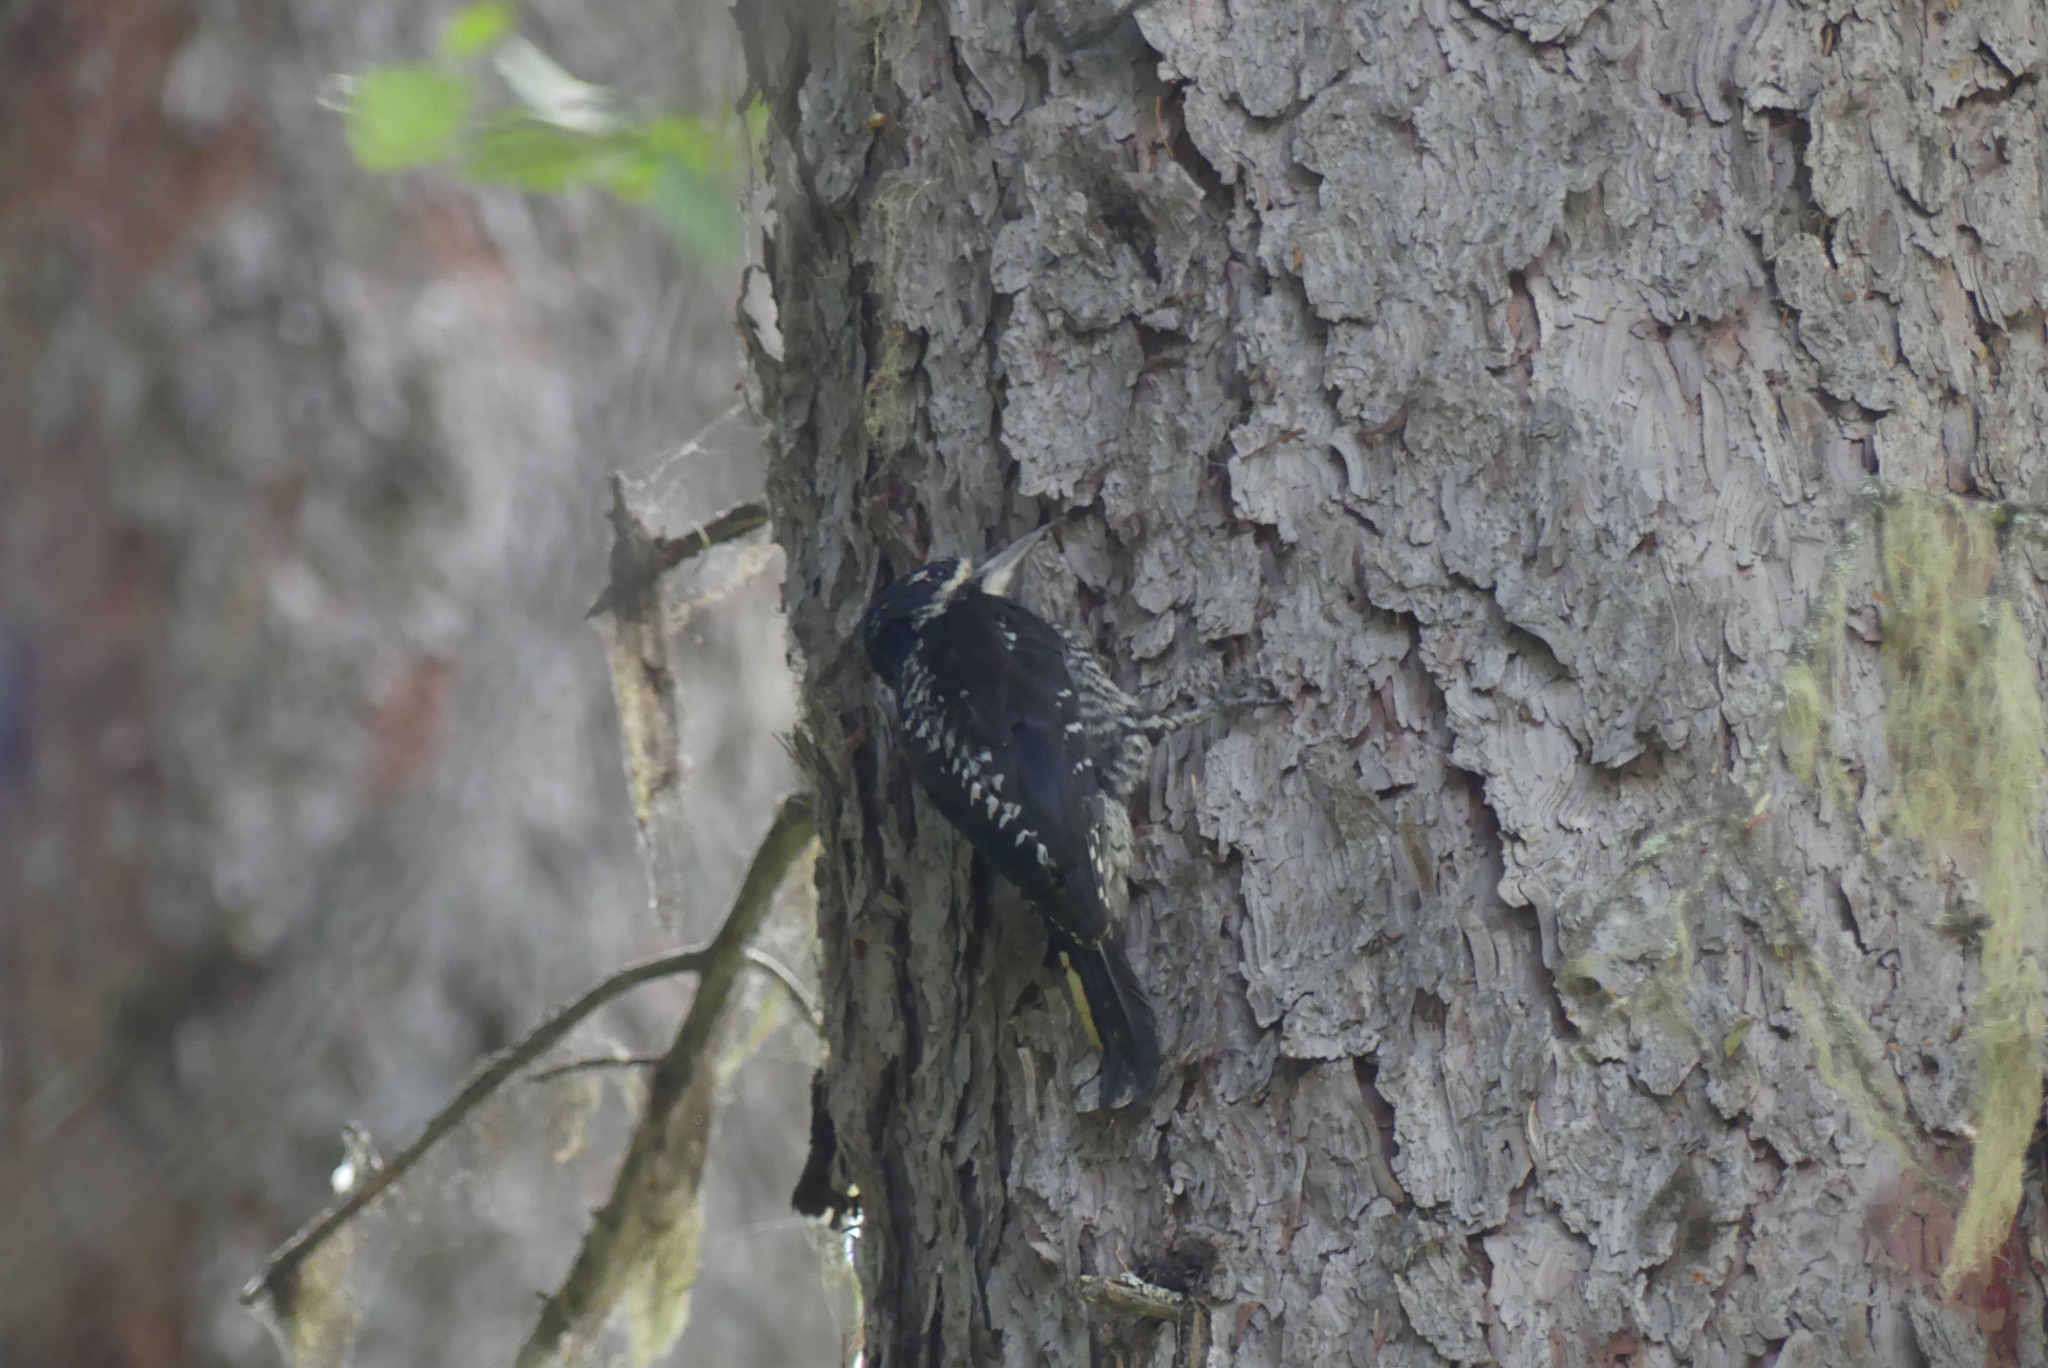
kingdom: Animalia
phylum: Chordata
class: Aves
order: Piciformes
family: Picidae
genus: Picoides
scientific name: Picoides dorsalis
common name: American three-toed woodpecker
